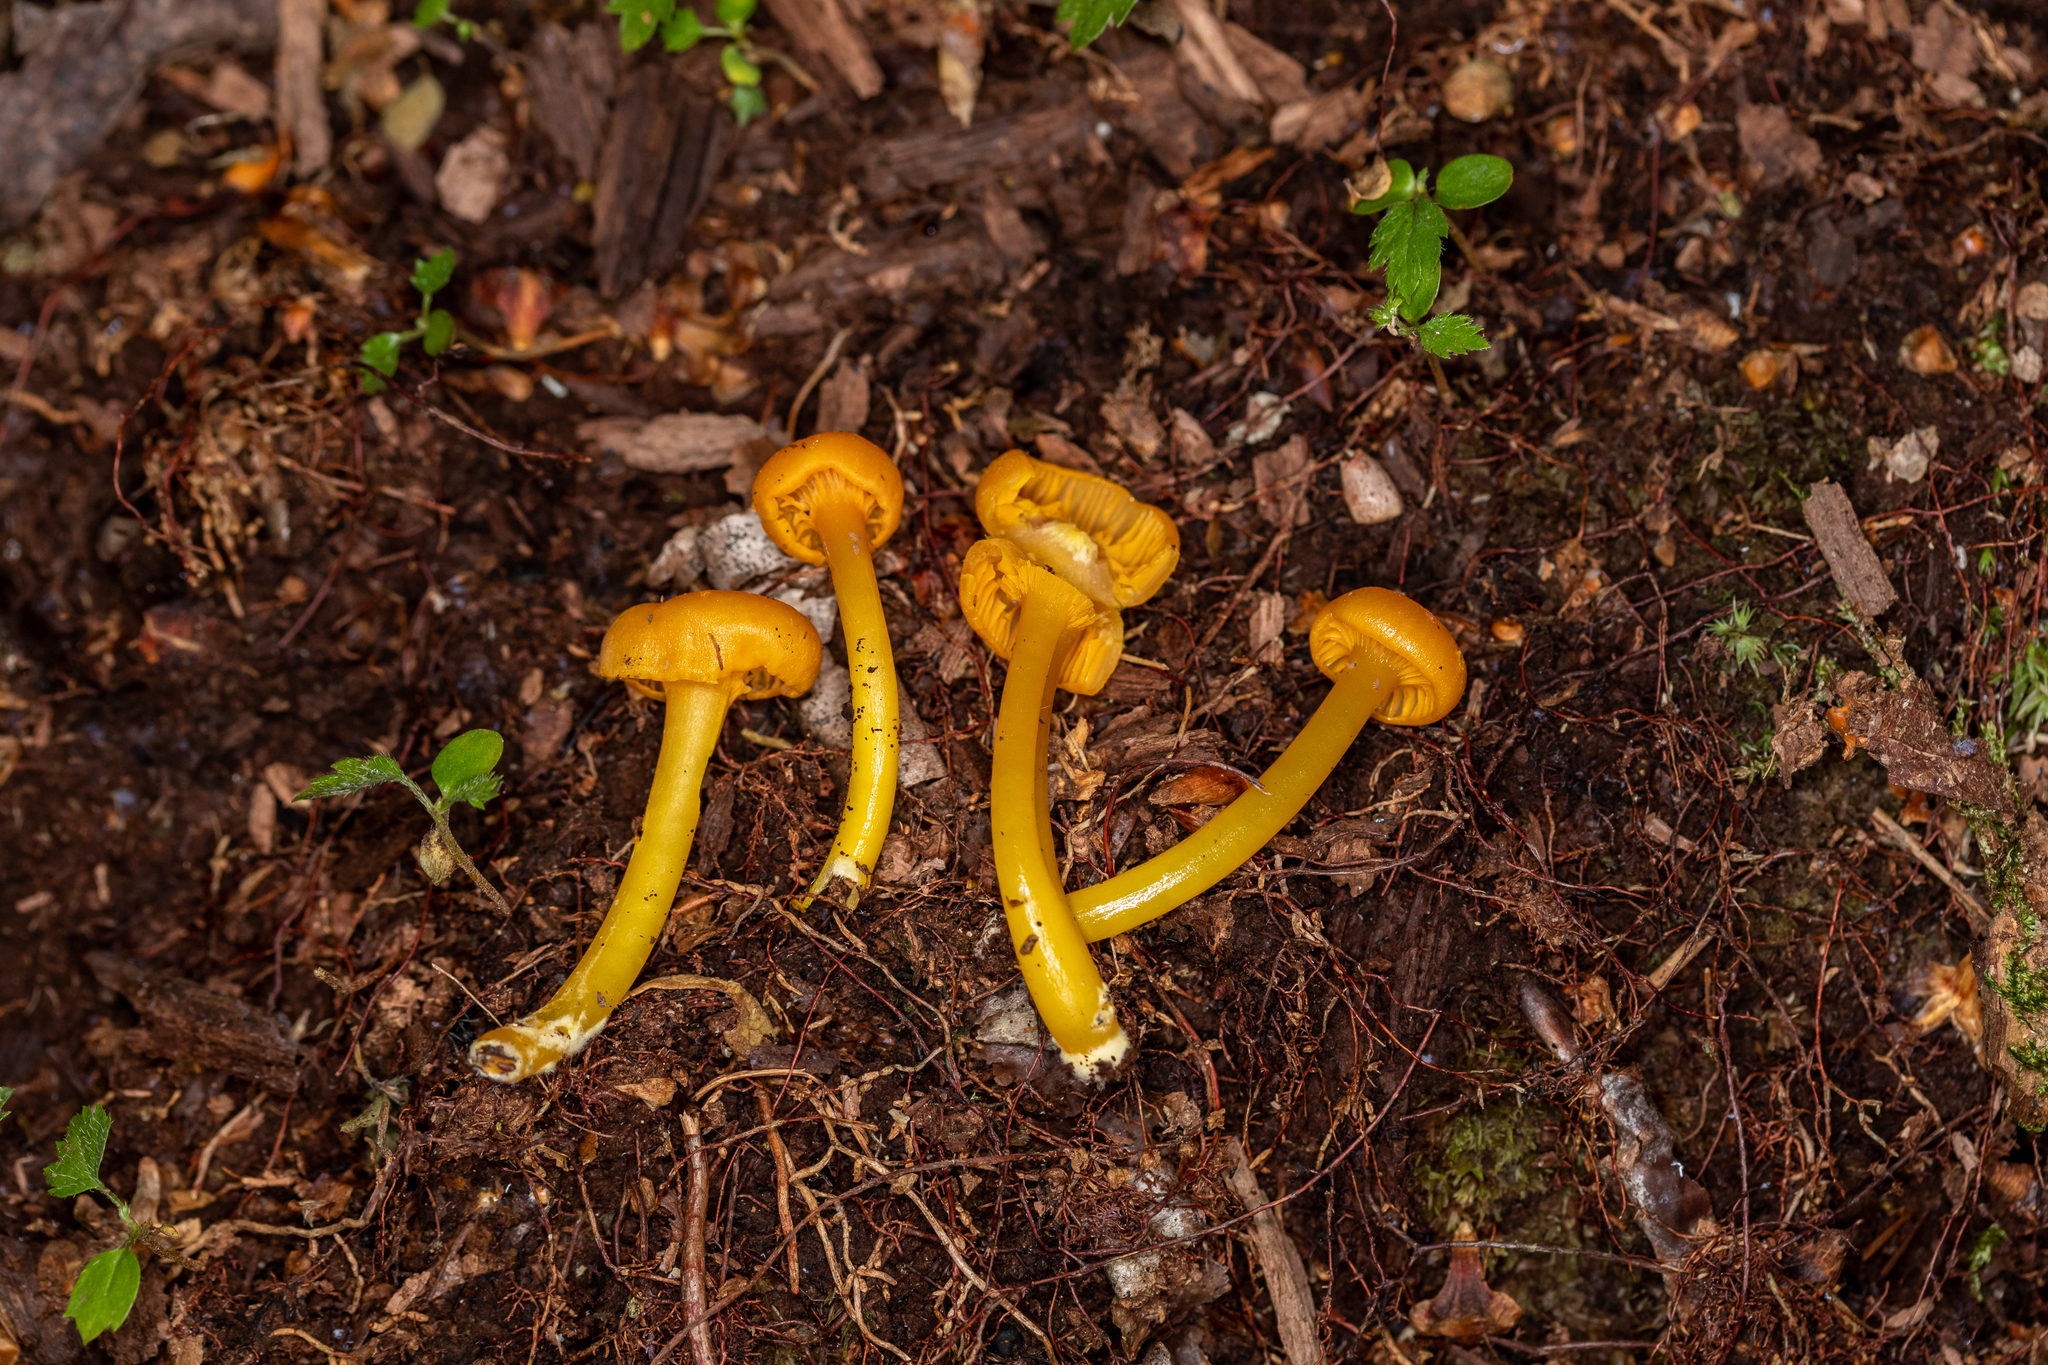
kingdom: Fungi
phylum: Basidiomycota
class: Agaricomycetes
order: Agaricales
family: Hygrophoraceae
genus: Gloioxanthomyces
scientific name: Gloioxanthomyces nitidus
